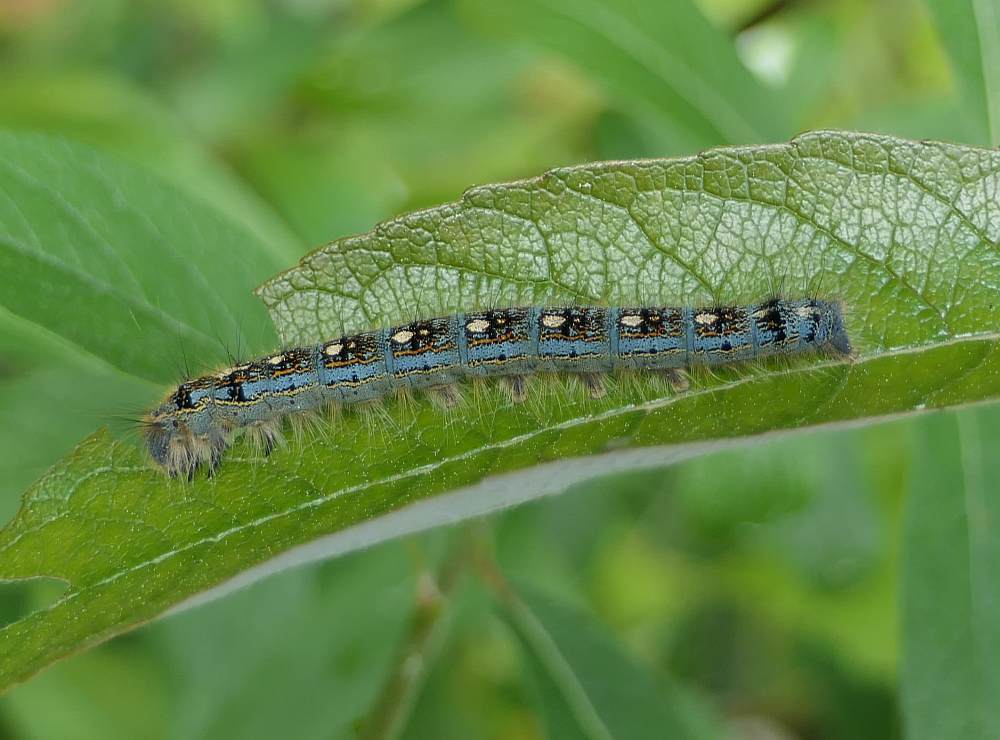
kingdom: Animalia
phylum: Arthropoda
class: Insecta
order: Lepidoptera
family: Lasiocampidae
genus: Malacosoma
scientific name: Malacosoma disstria
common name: Forest tent caterpillar
